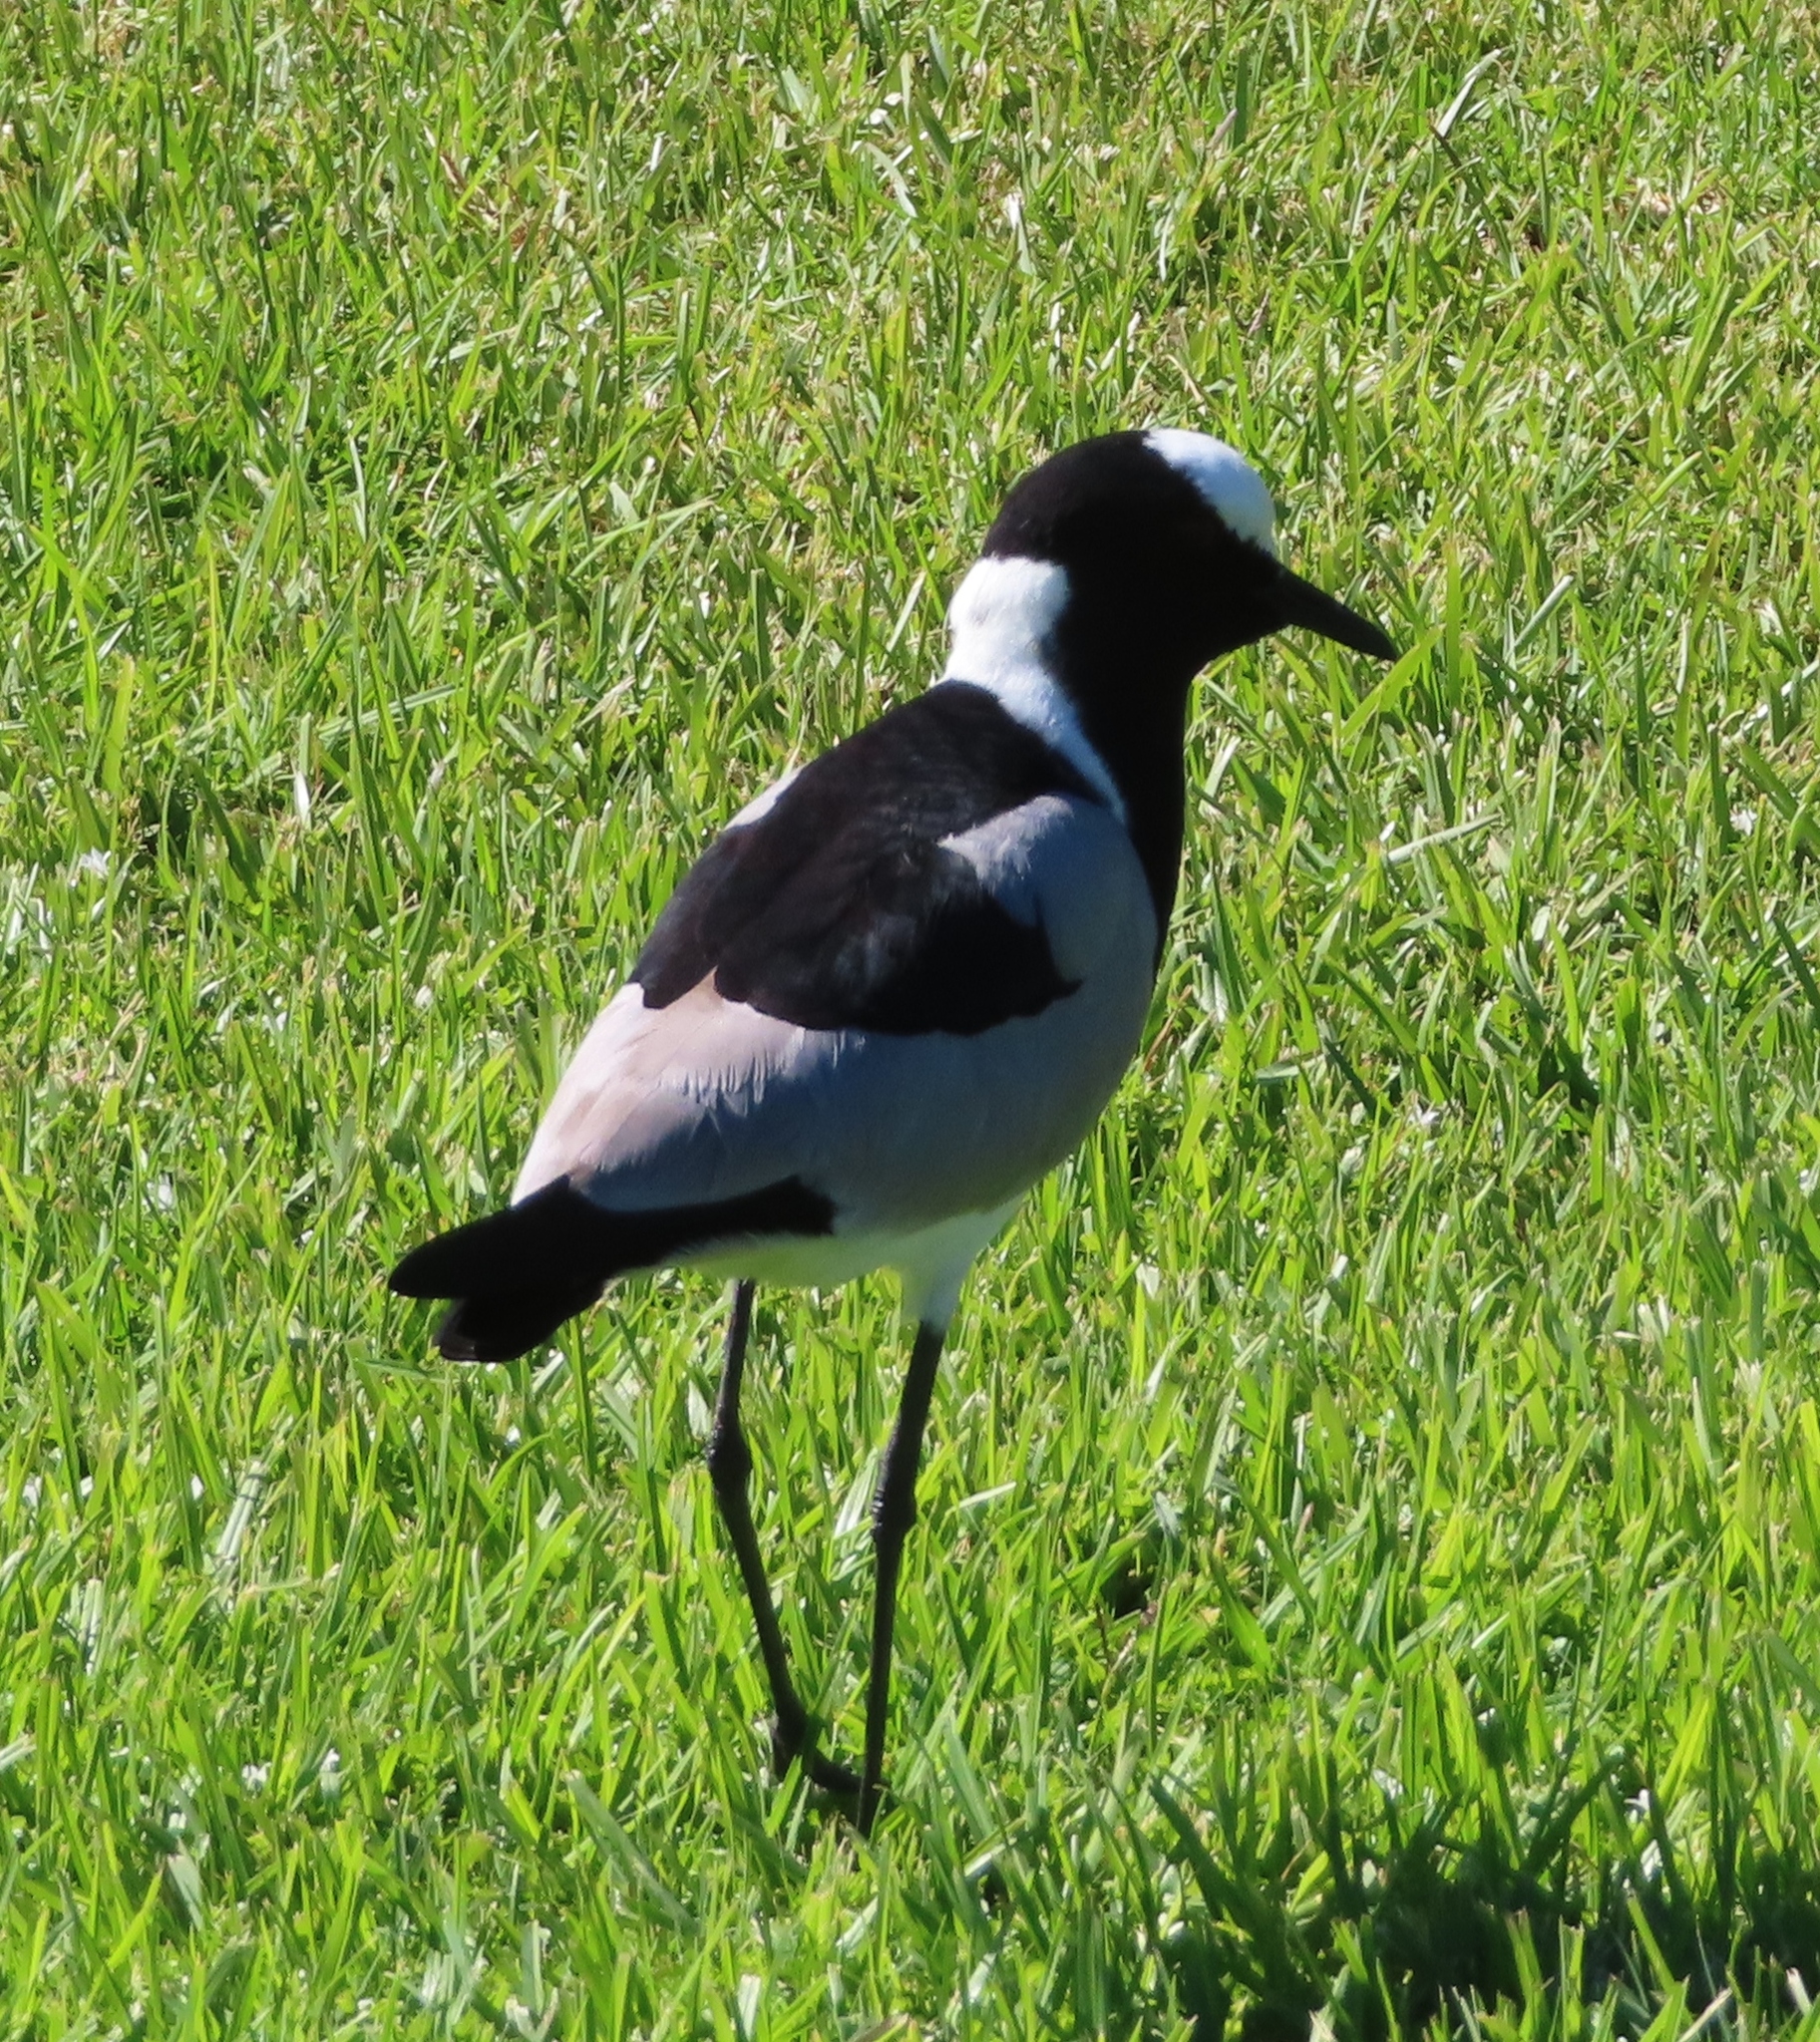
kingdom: Animalia
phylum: Chordata
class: Aves
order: Charadriiformes
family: Charadriidae
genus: Vanellus
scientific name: Vanellus armatus
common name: Blacksmith lapwing
